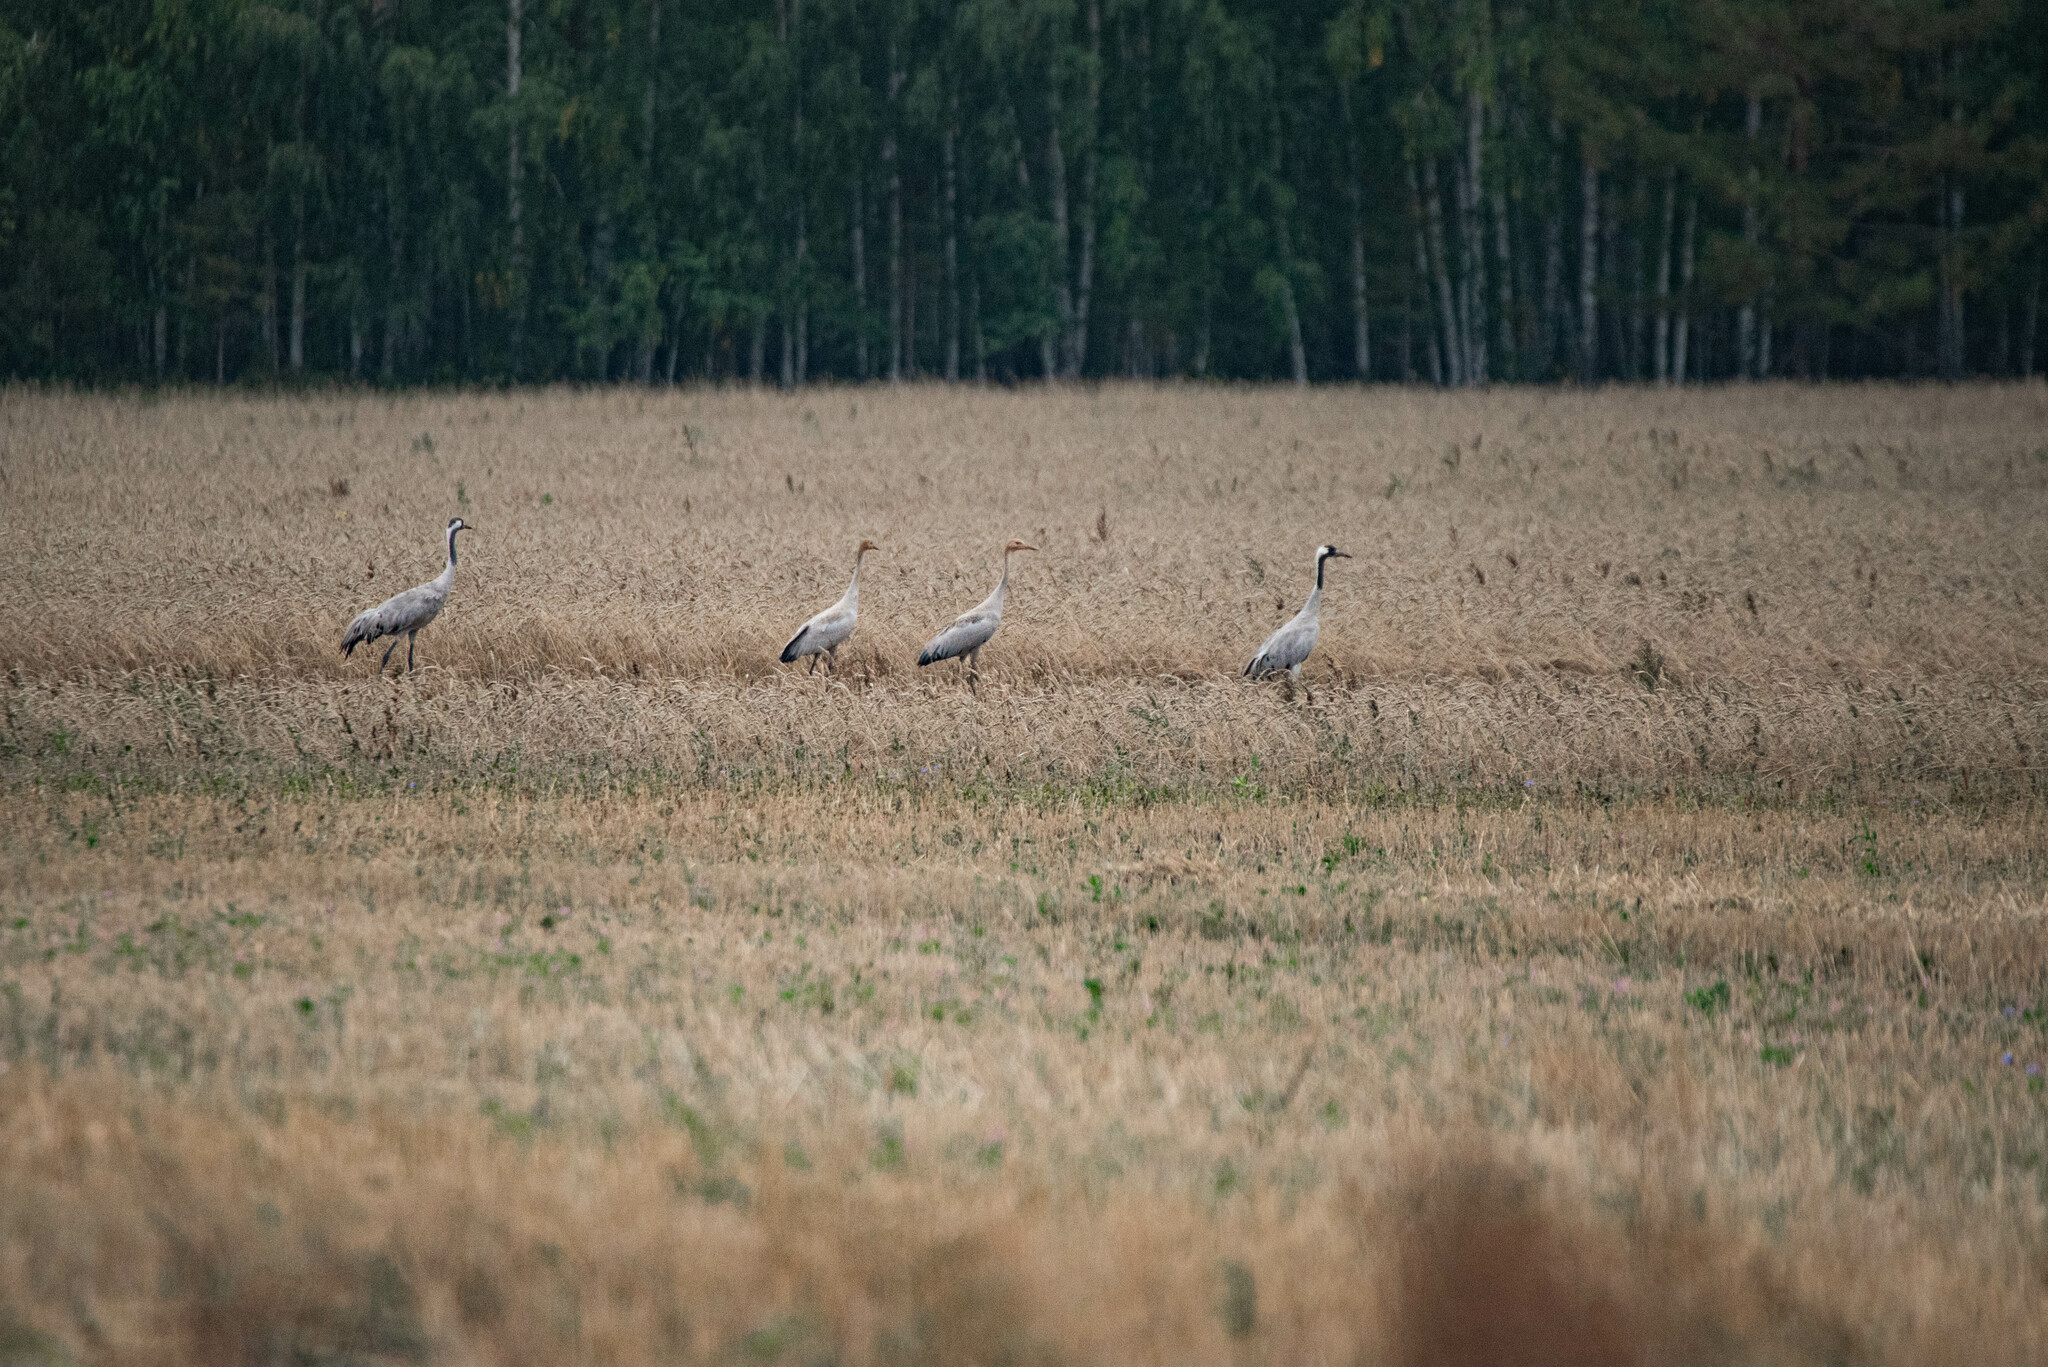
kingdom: Animalia
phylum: Chordata
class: Aves
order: Gruiformes
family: Gruidae
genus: Grus
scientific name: Grus grus
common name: Common crane
